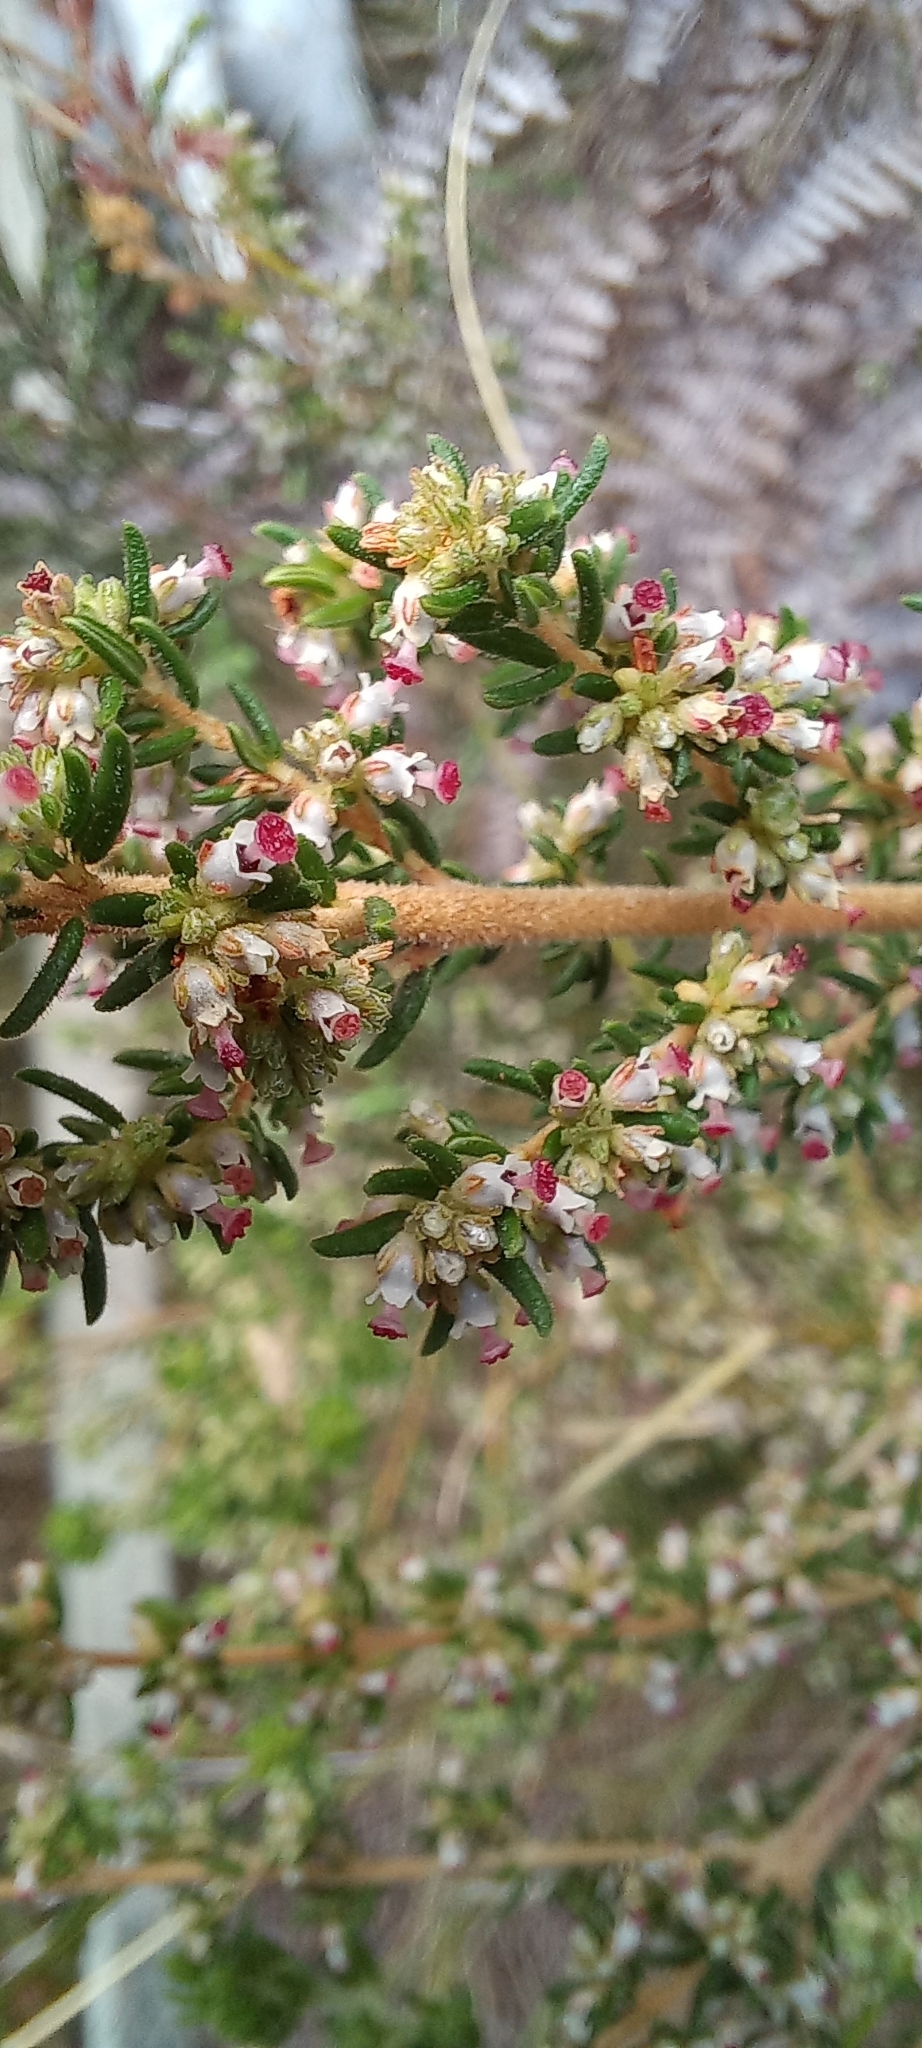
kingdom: Plantae
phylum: Tracheophyta
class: Magnoliopsida
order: Ericales
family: Ericaceae
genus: Erica
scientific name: Erica hispidula
